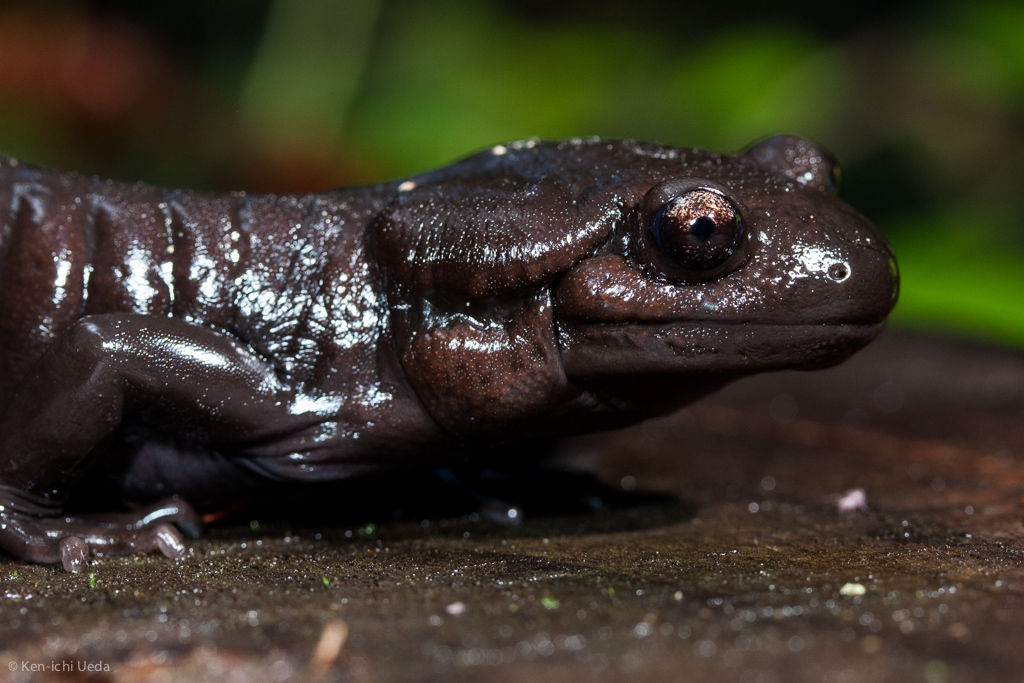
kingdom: Animalia
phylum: Chordata
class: Amphibia
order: Caudata
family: Ambystomatidae
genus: Ambystoma
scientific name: Ambystoma gracile
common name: Northwestern salamander
